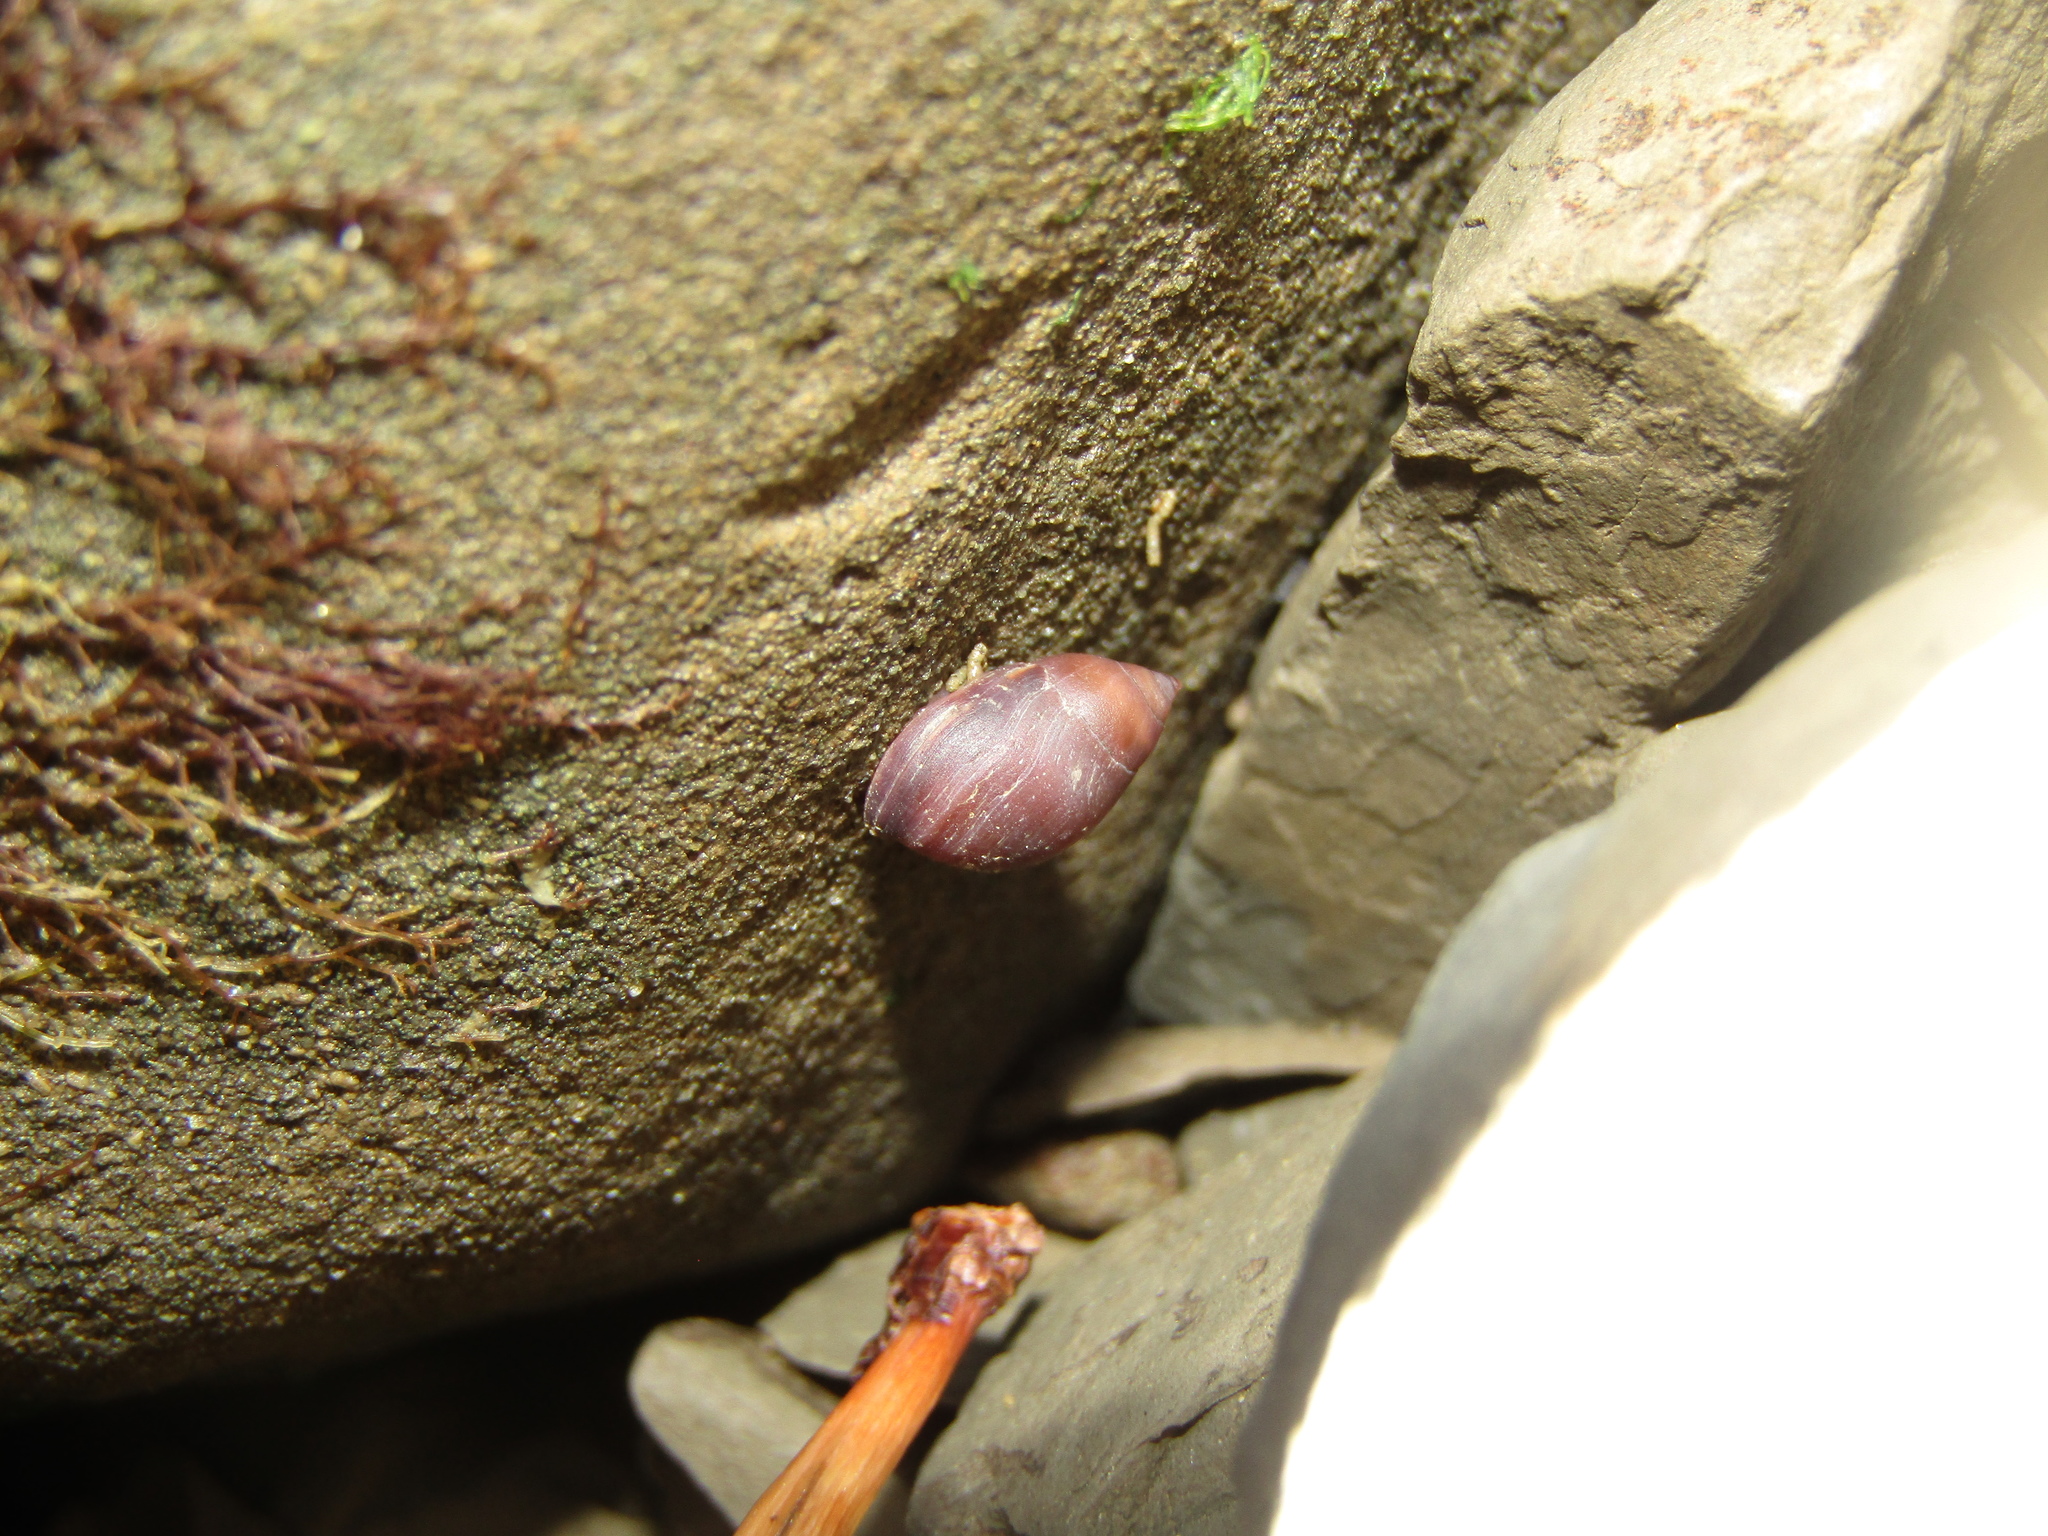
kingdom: Animalia
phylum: Mollusca
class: Gastropoda
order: Ellobiida
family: Ellobiidae
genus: Marinula
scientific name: Marinula filholi
